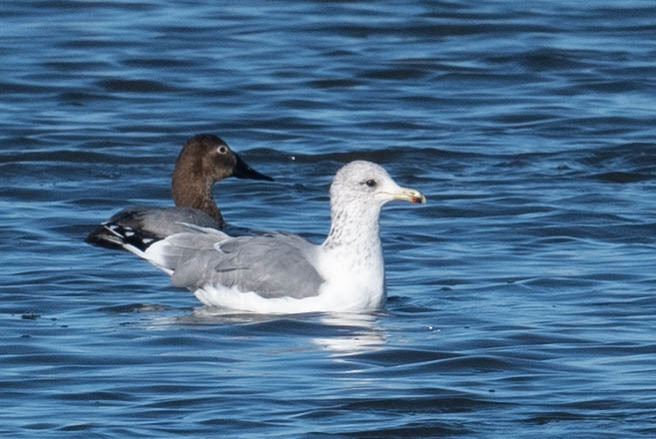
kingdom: Animalia
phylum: Chordata
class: Aves
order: Charadriiformes
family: Laridae
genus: Larus
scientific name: Larus californicus
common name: California gull
